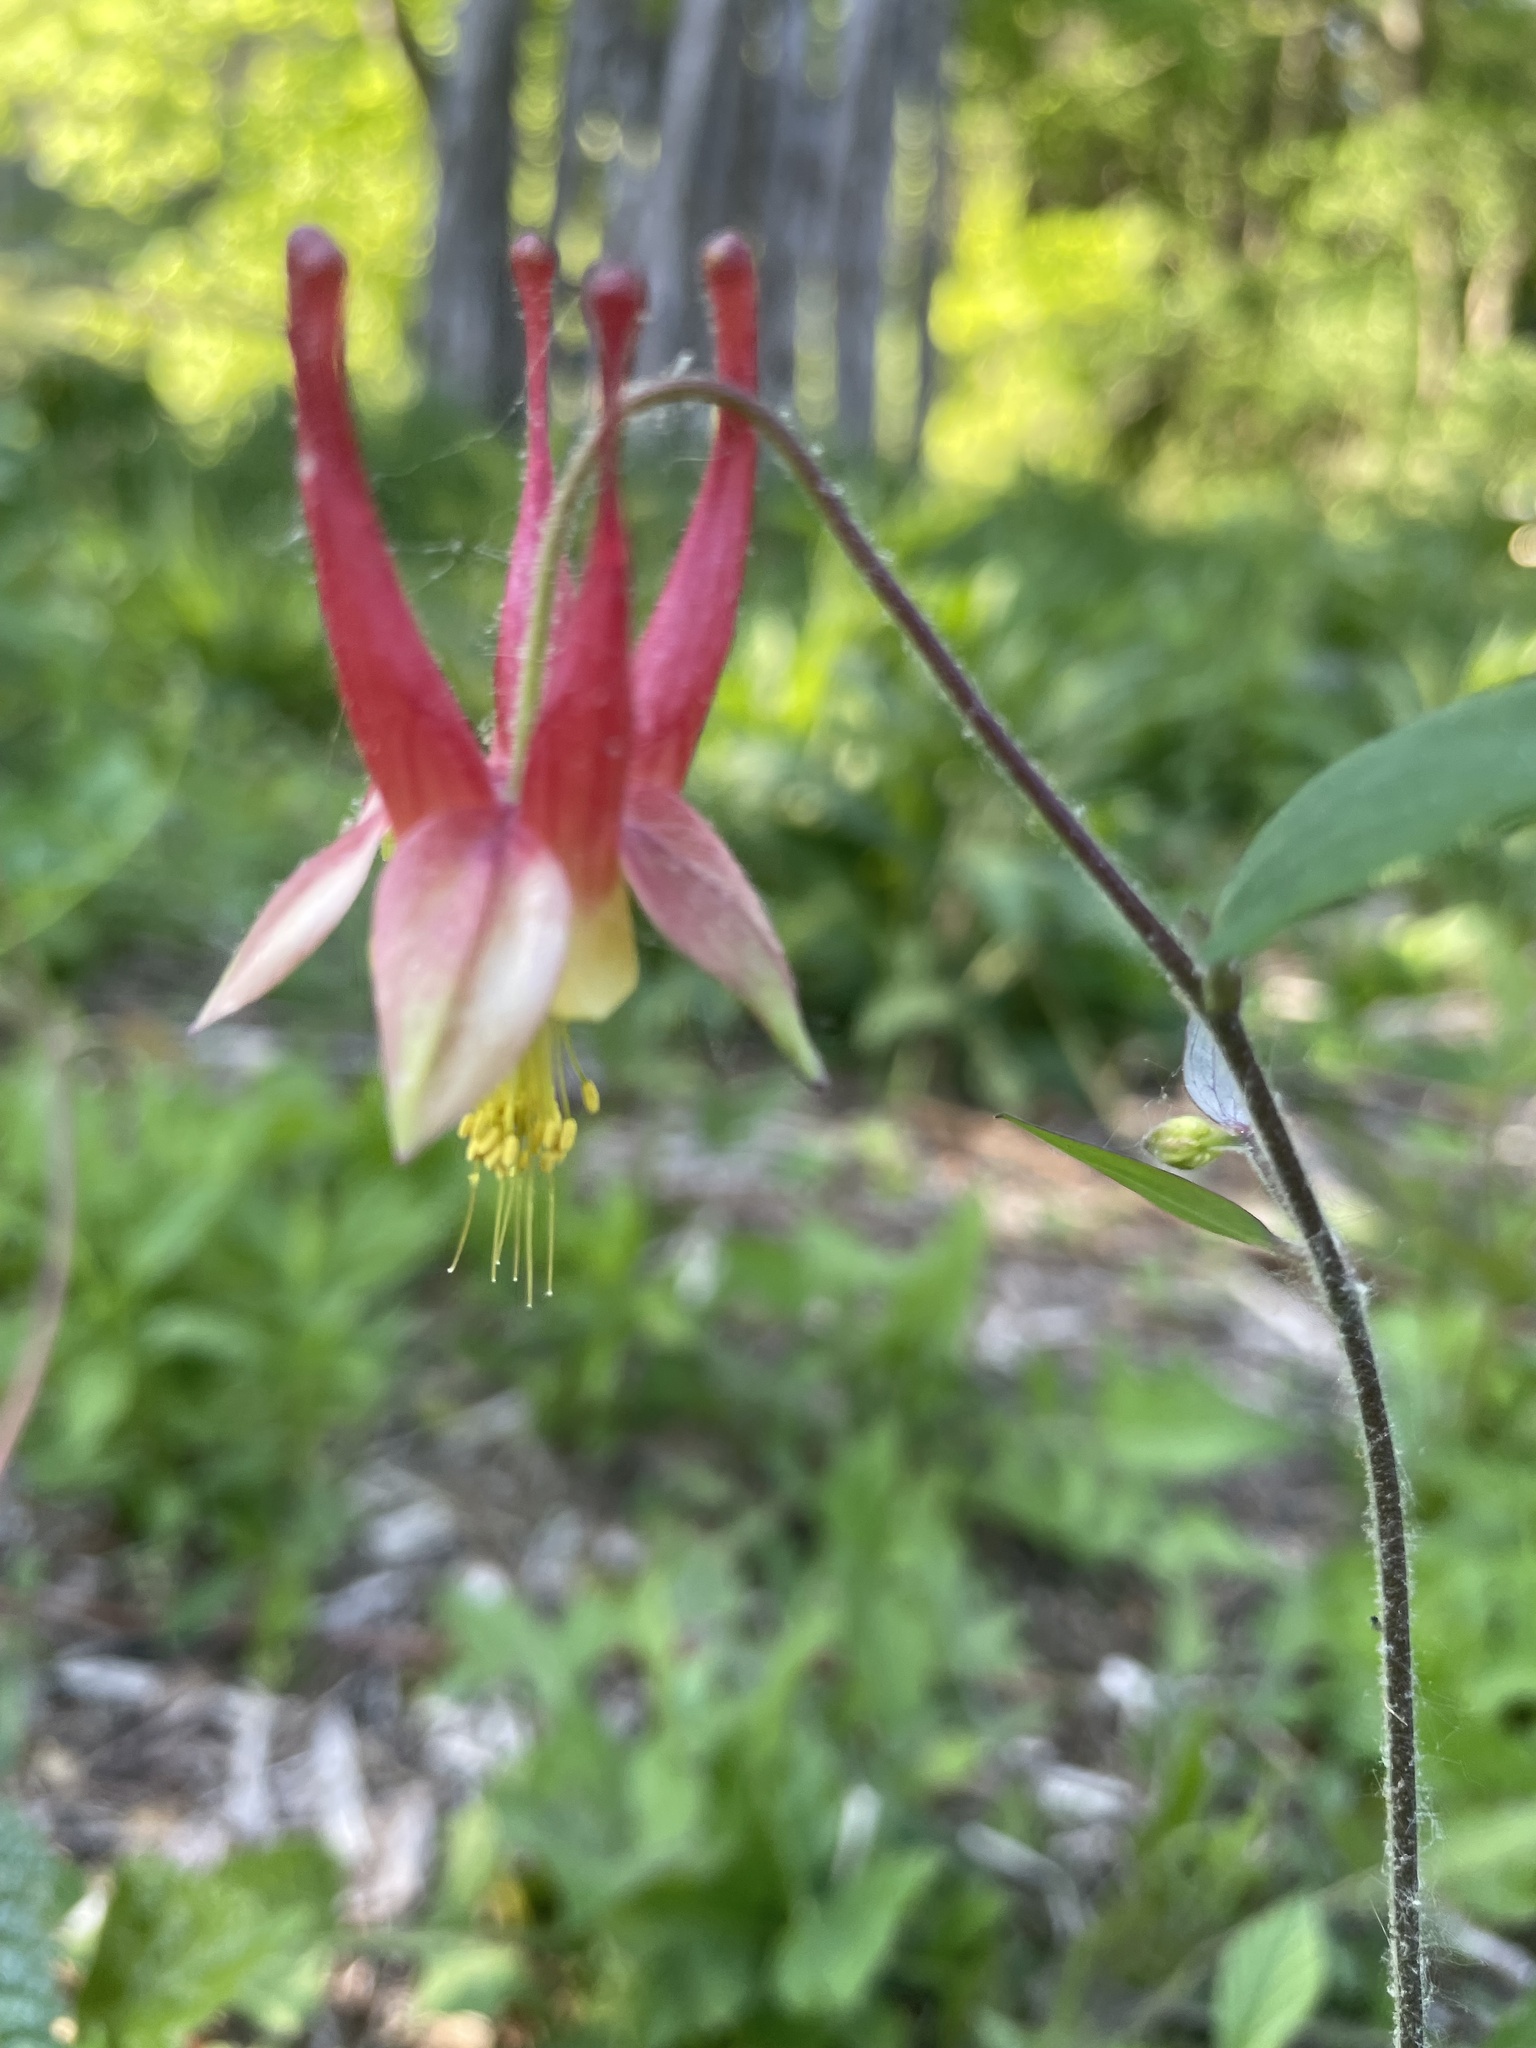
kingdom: Plantae
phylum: Tracheophyta
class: Magnoliopsida
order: Ranunculales
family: Ranunculaceae
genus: Aquilegia
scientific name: Aquilegia canadensis
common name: American columbine
